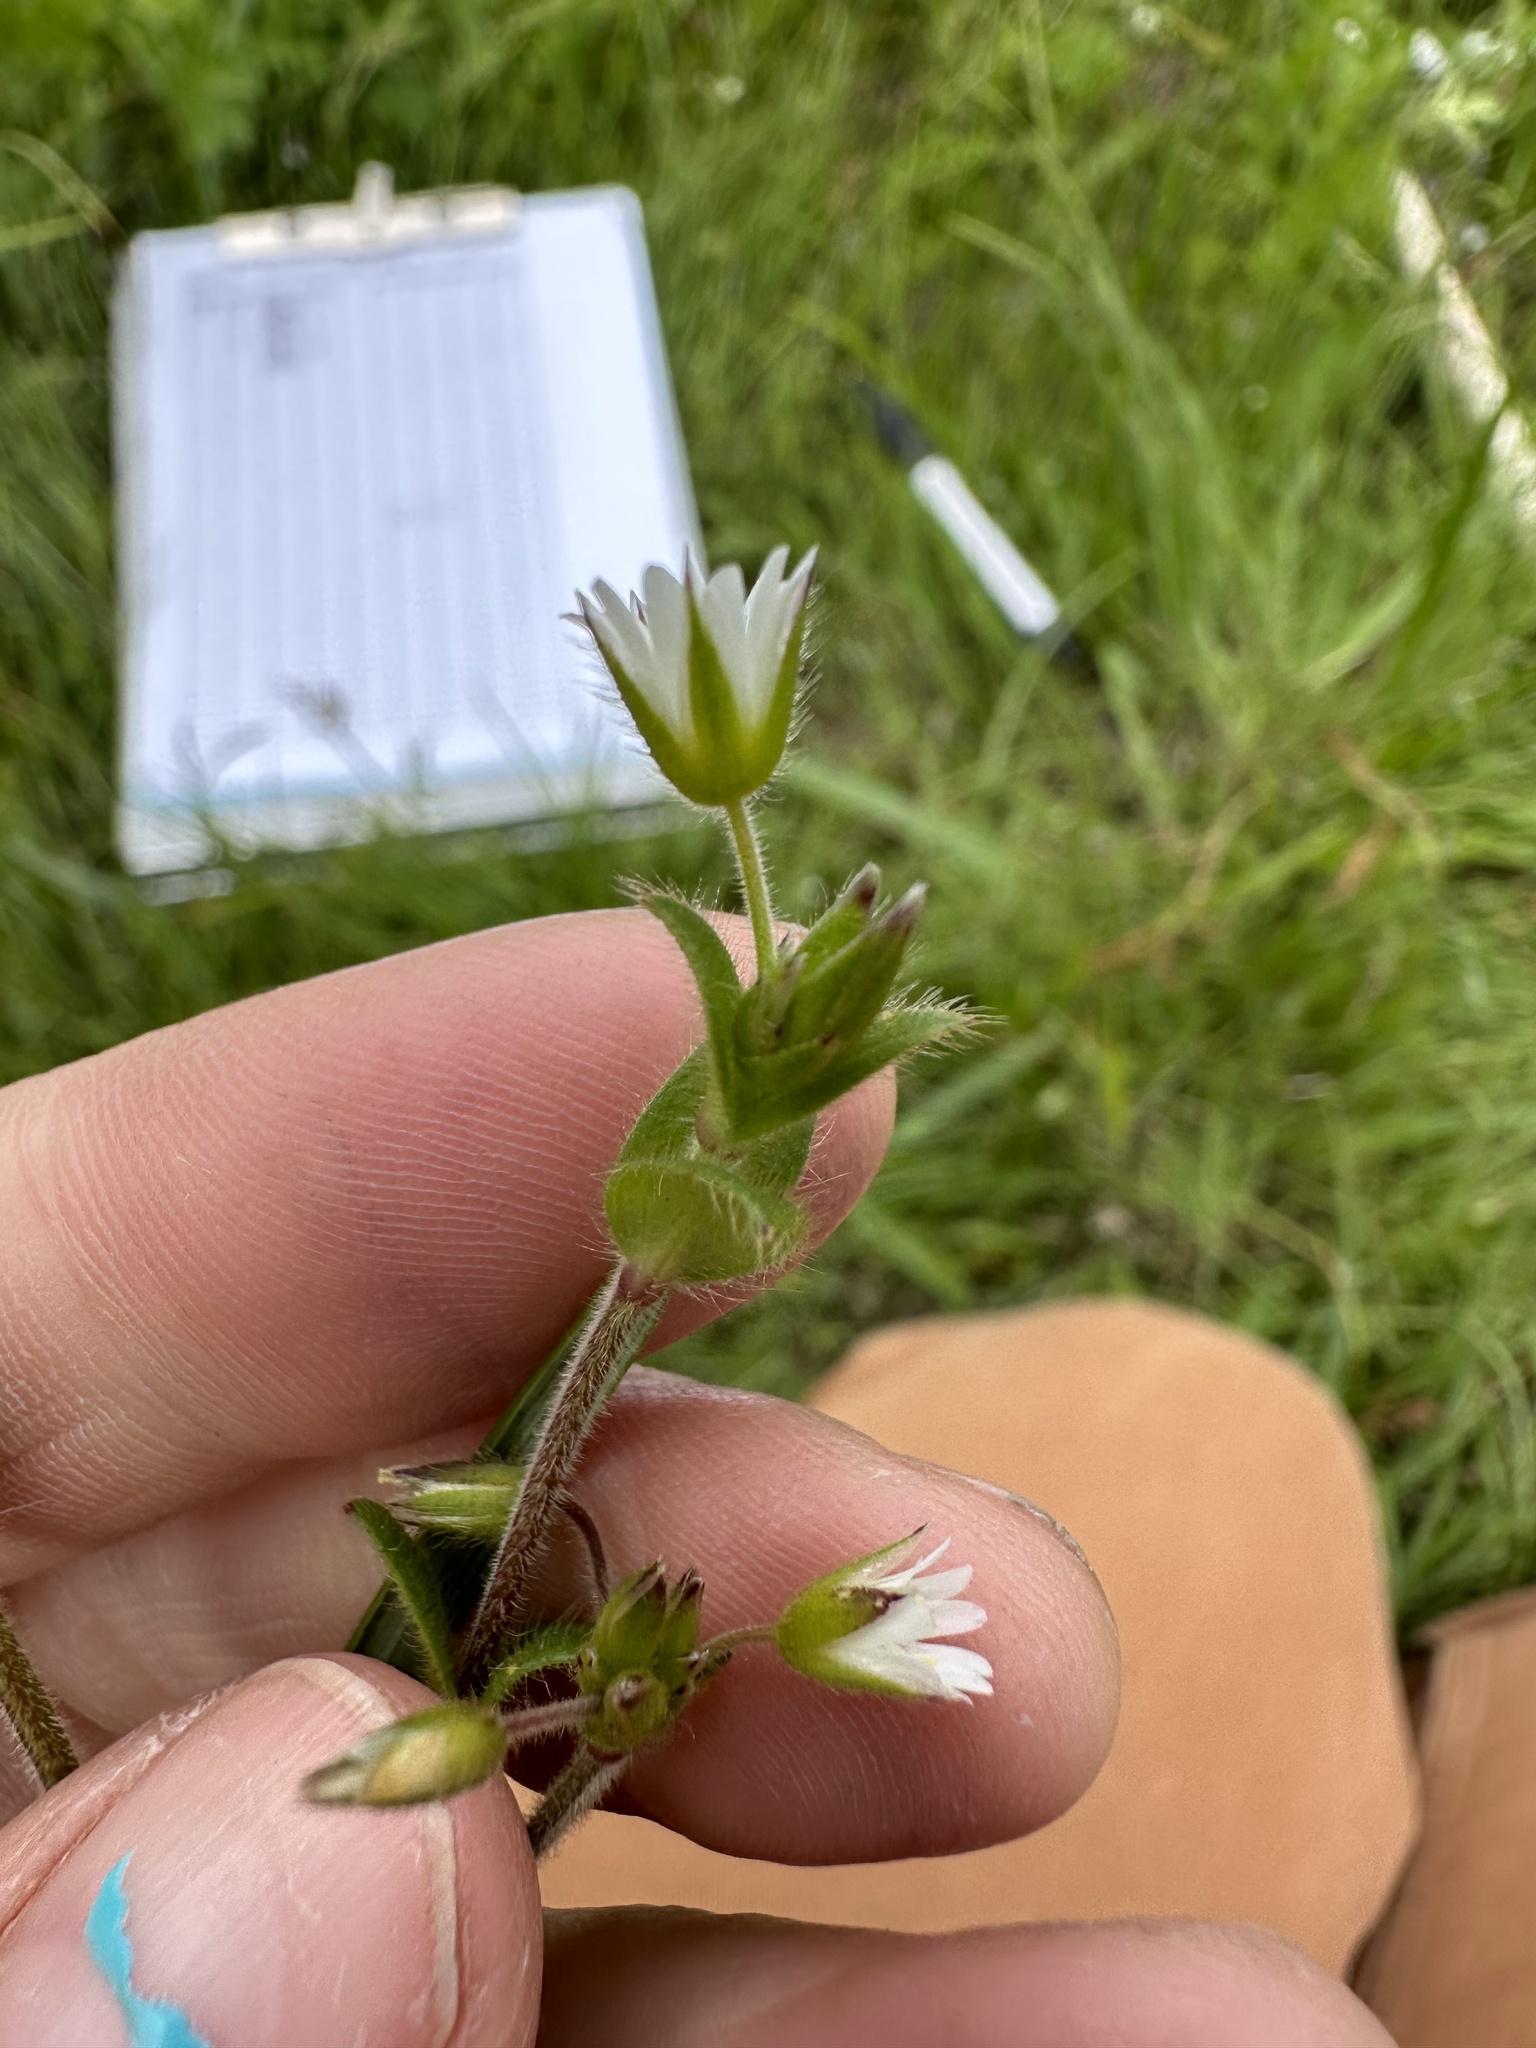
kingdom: Plantae
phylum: Tracheophyta
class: Magnoliopsida
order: Caryophyllales
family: Caryophyllaceae
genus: Cerastium
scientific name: Cerastium fontanum
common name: Common mouse-ear
